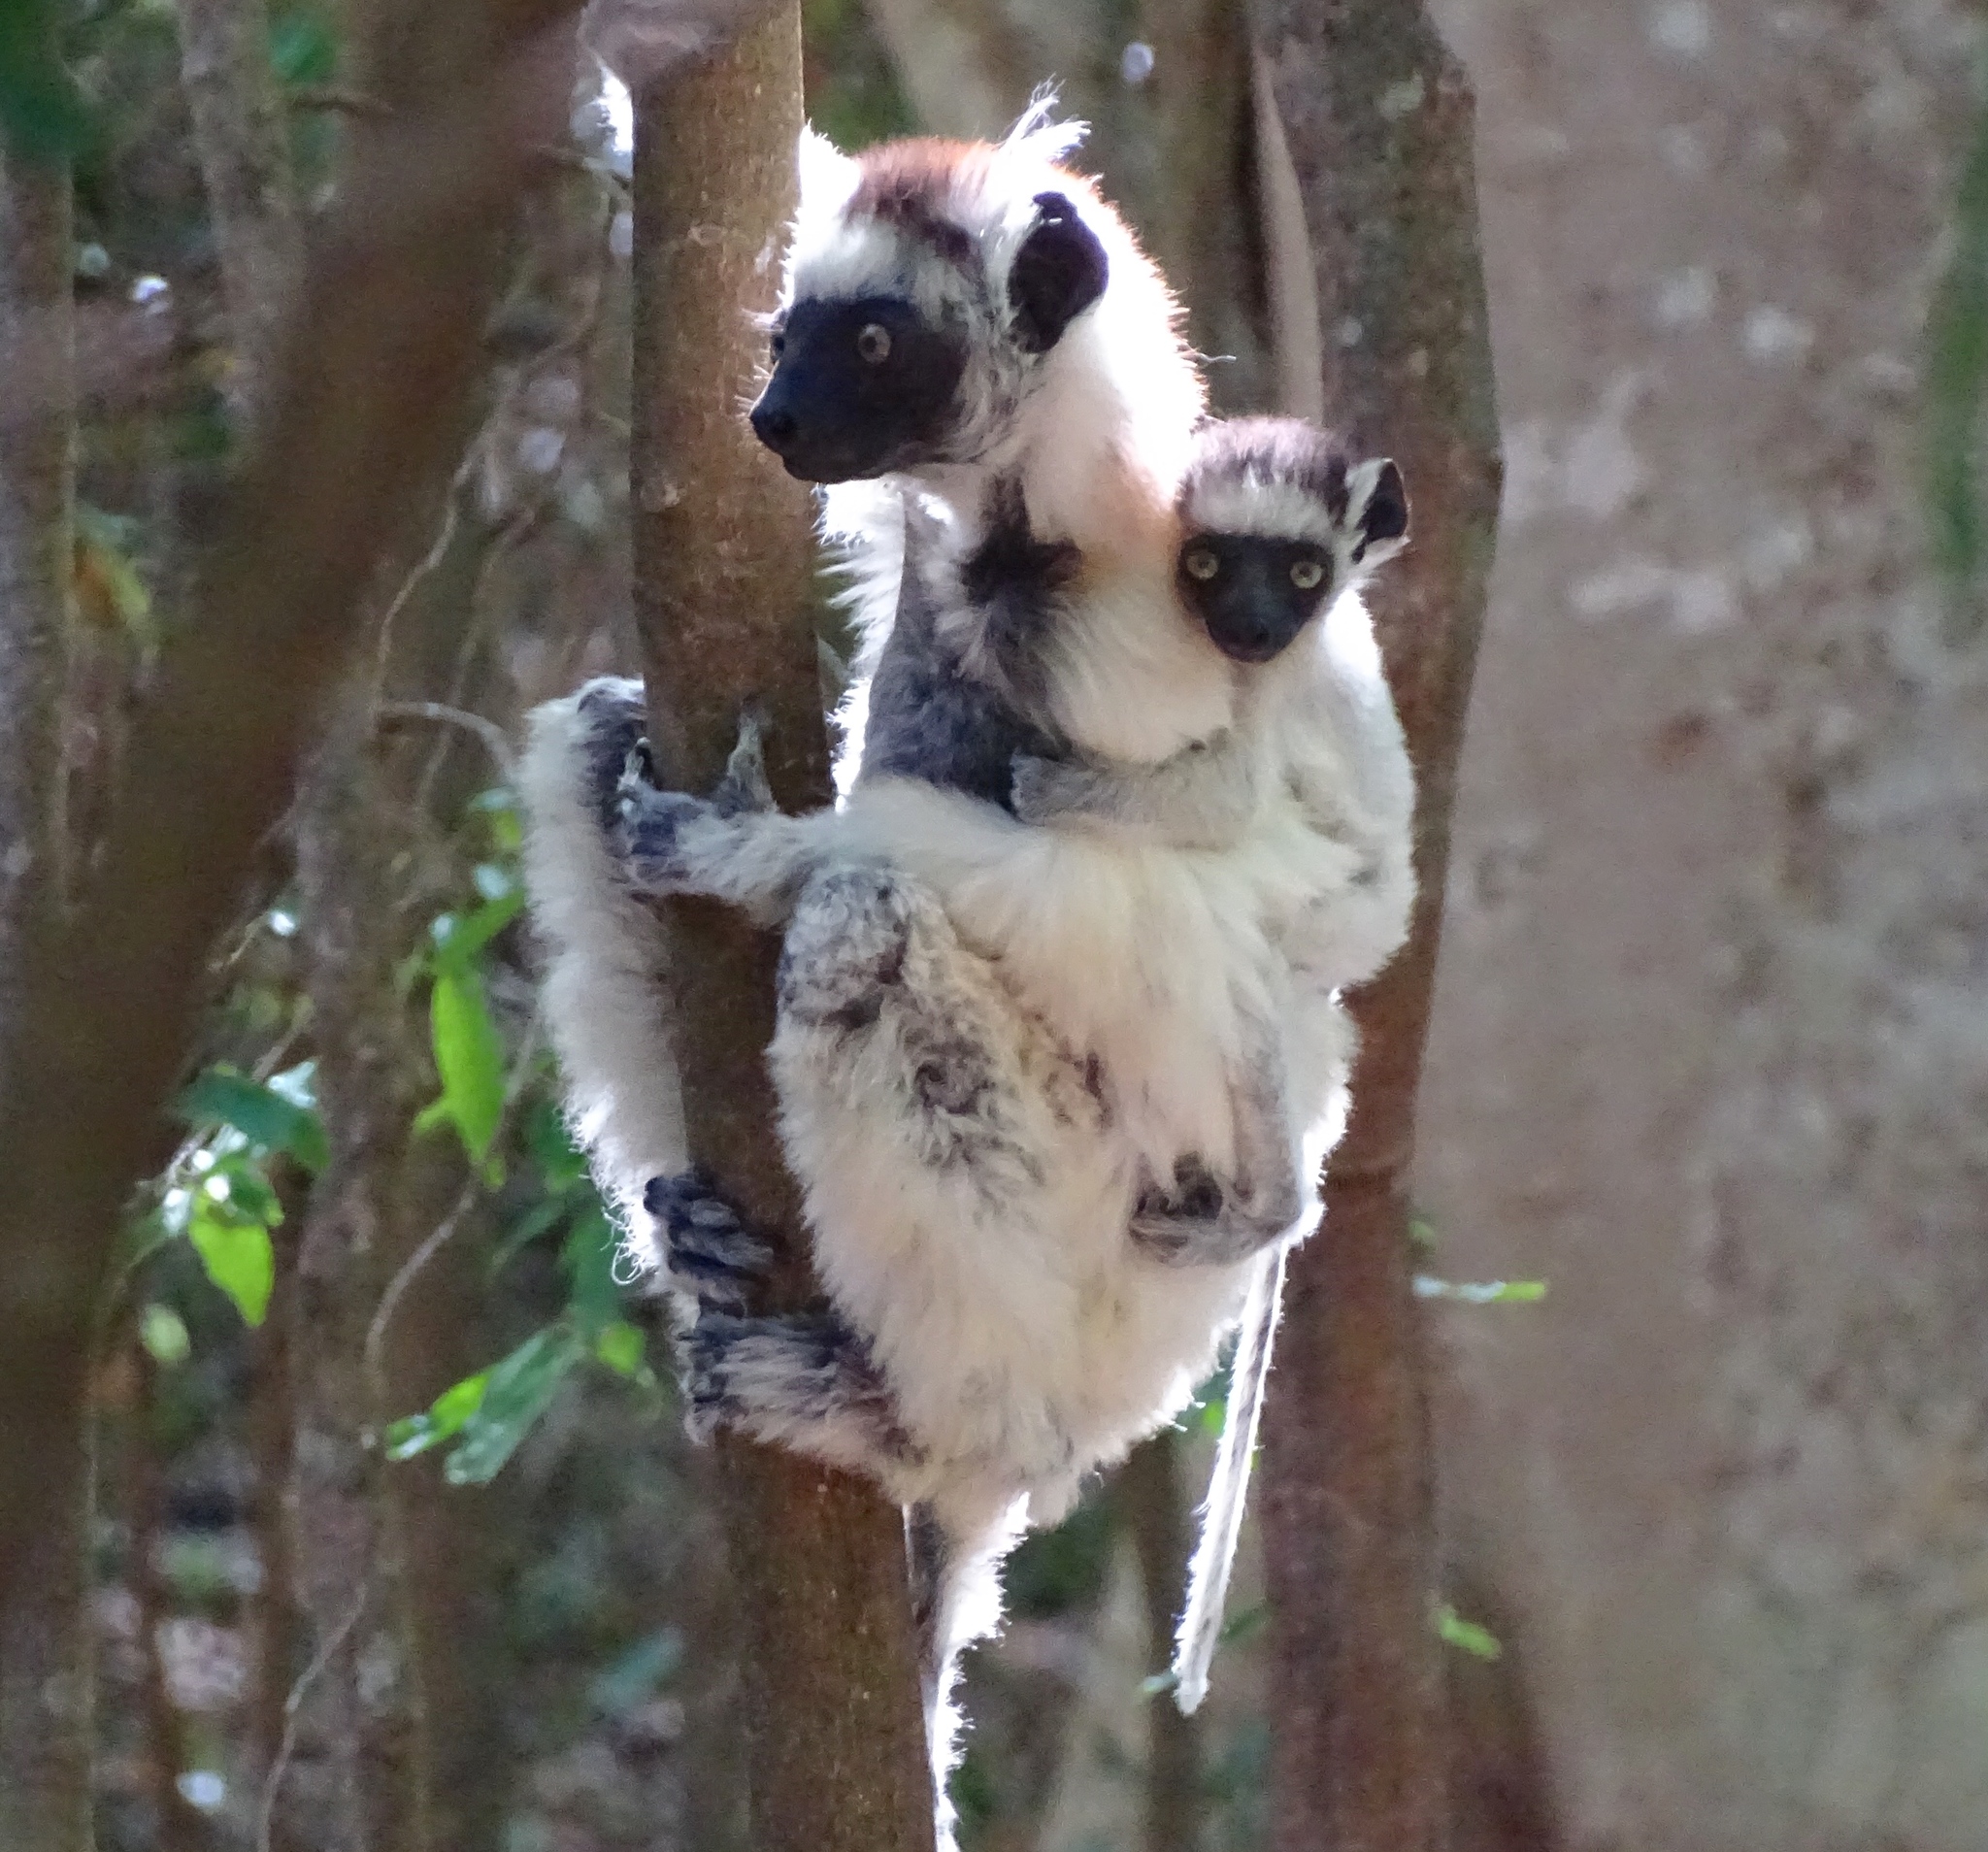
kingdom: Animalia
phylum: Chordata
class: Mammalia
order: Primates
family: Indriidae
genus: Propithecus
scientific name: Propithecus verreauxi
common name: Verreaux's sifaka
